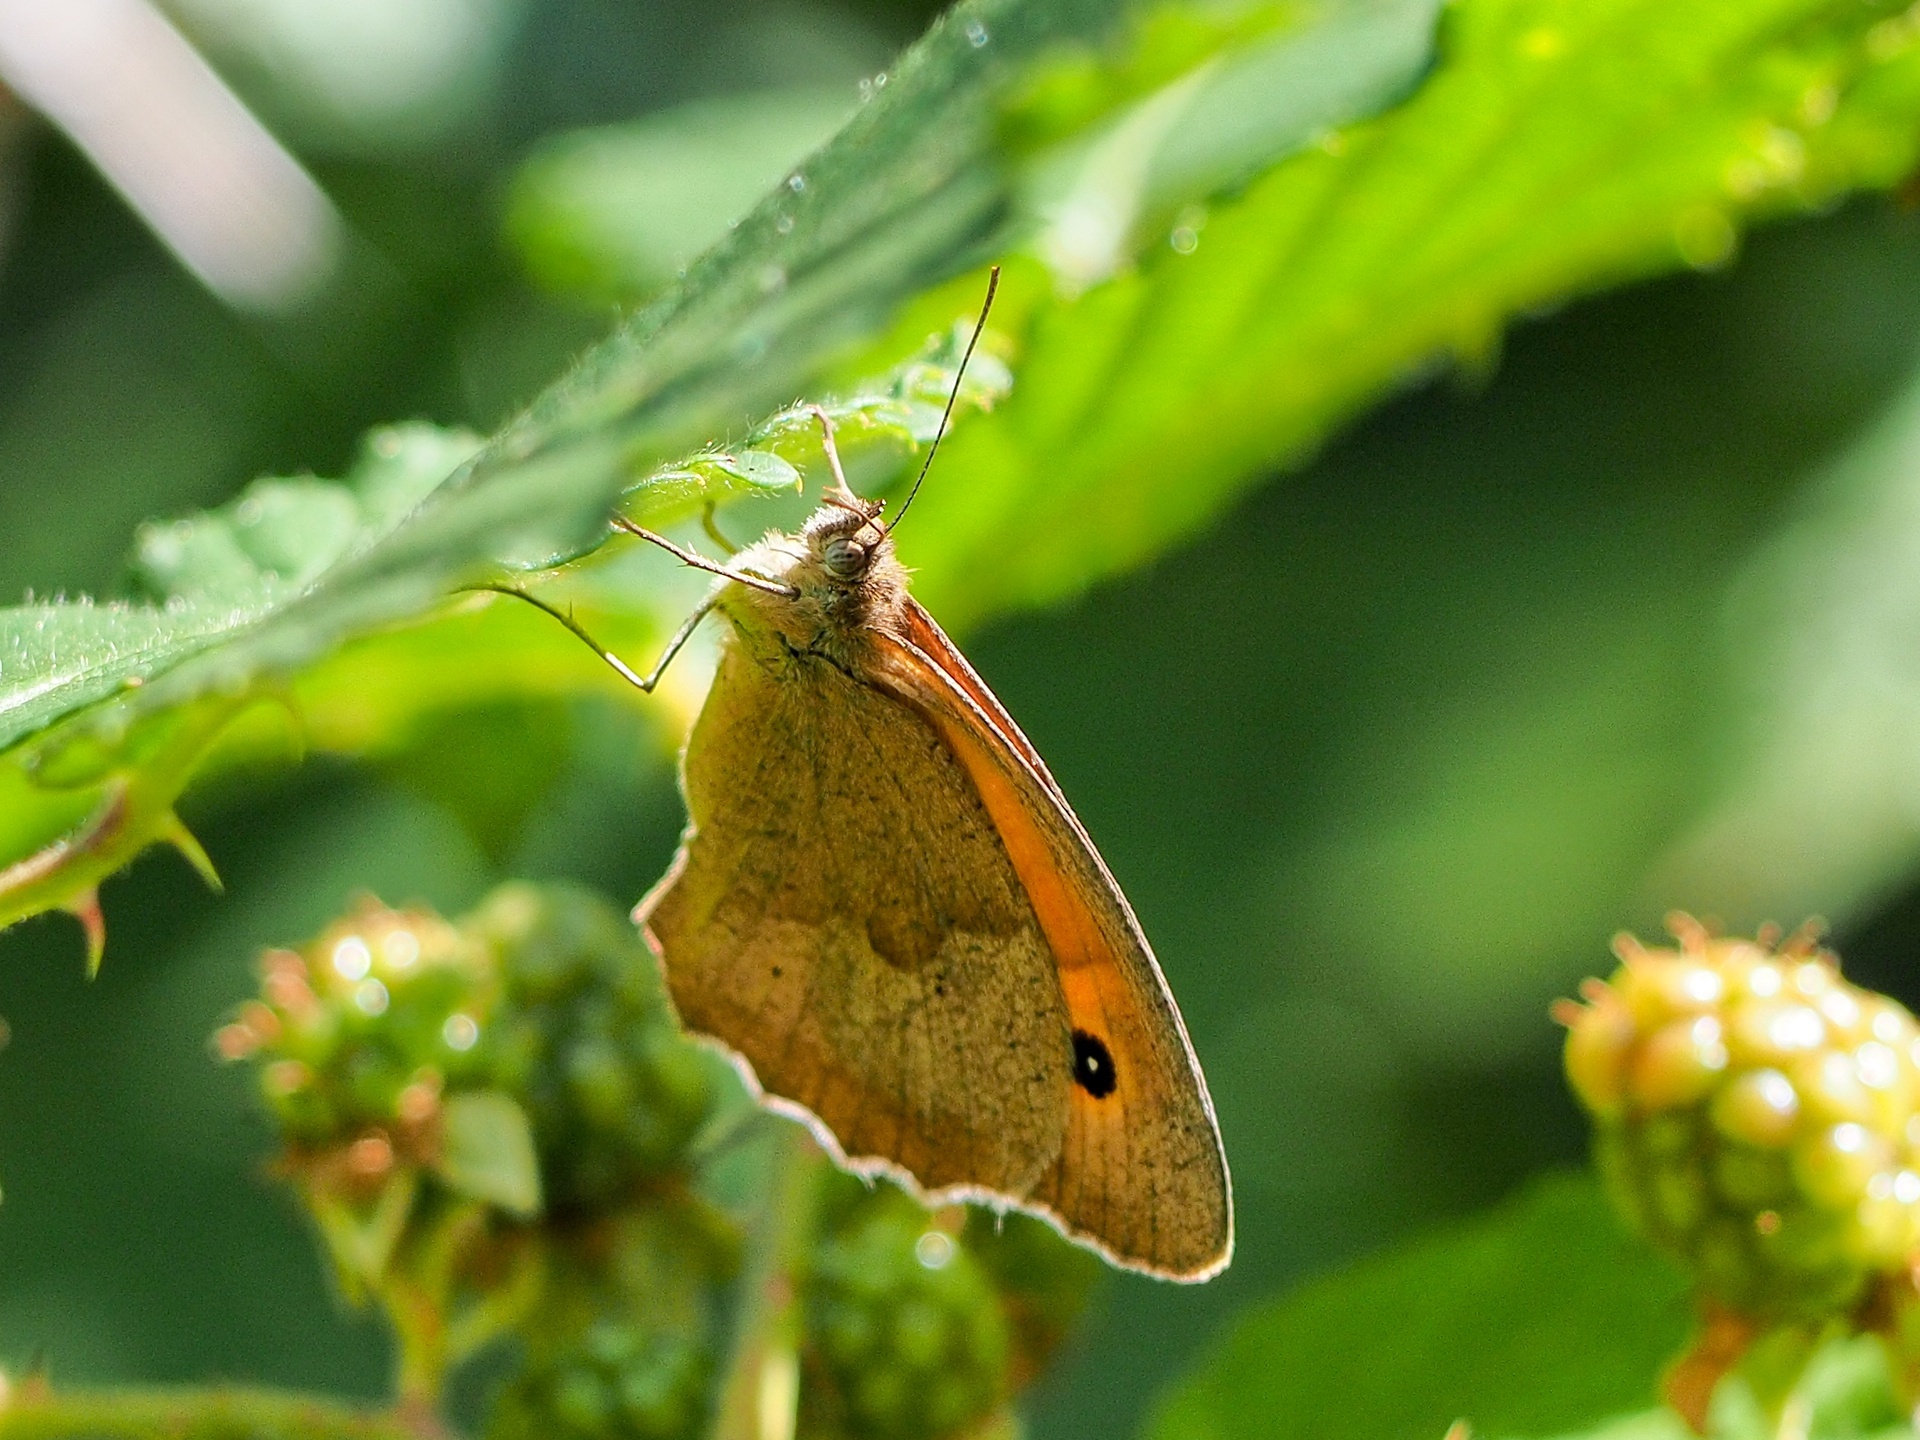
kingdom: Animalia
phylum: Arthropoda
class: Insecta
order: Lepidoptera
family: Nymphalidae
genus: Maniola
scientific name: Maniola jurtina
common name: Meadow brown
